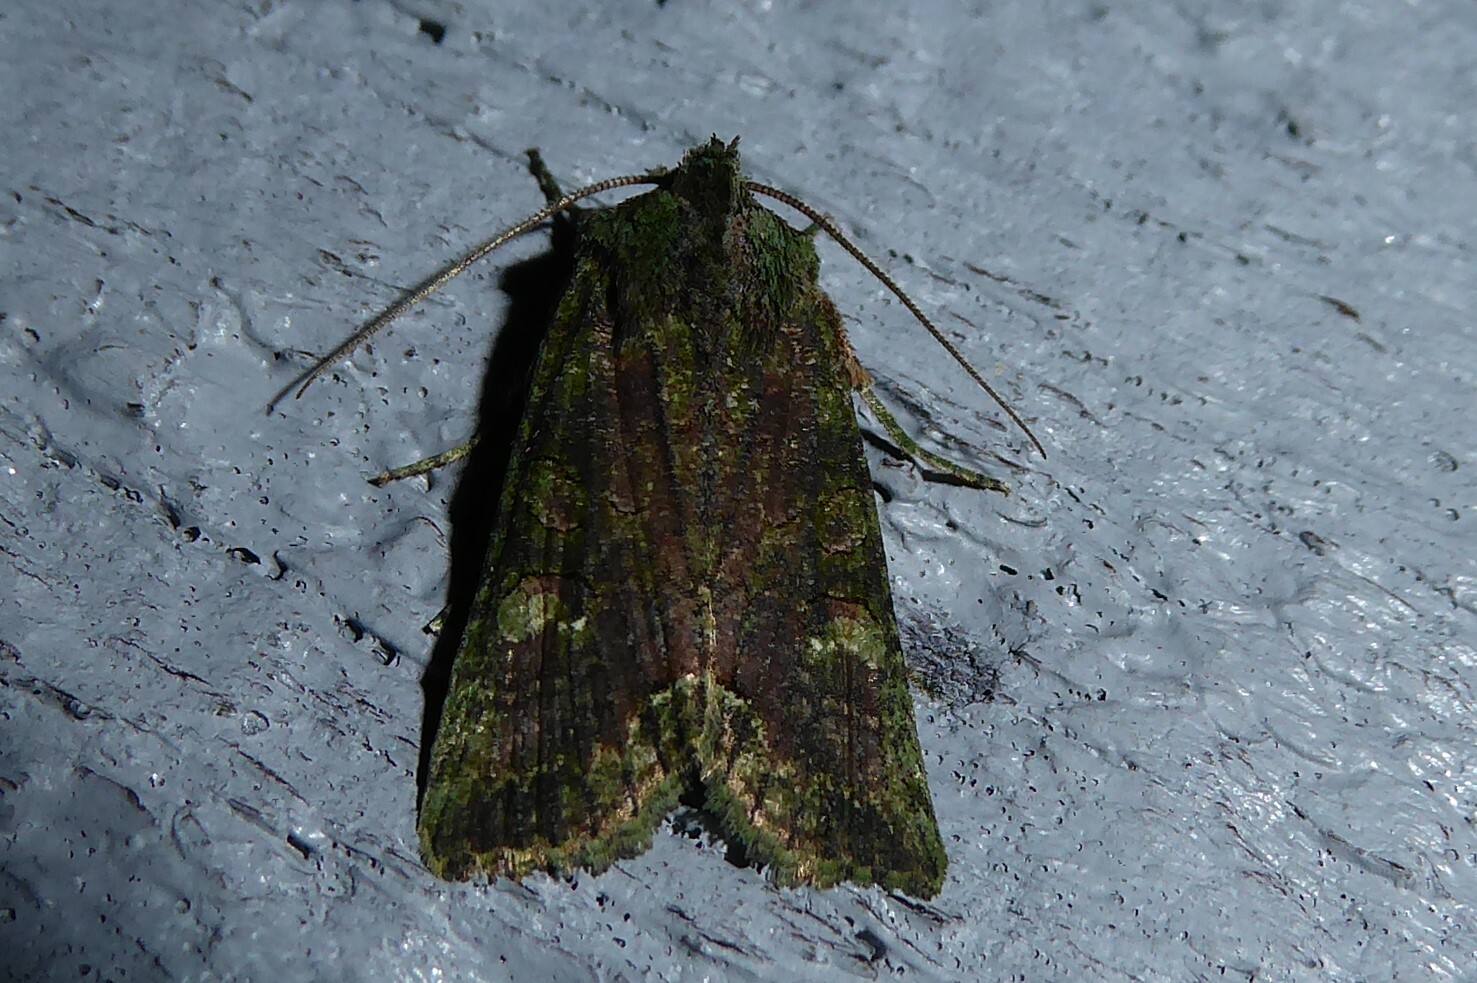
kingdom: Animalia
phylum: Arthropoda
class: Insecta
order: Lepidoptera
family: Noctuidae
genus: Meterana
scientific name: Meterana levis
